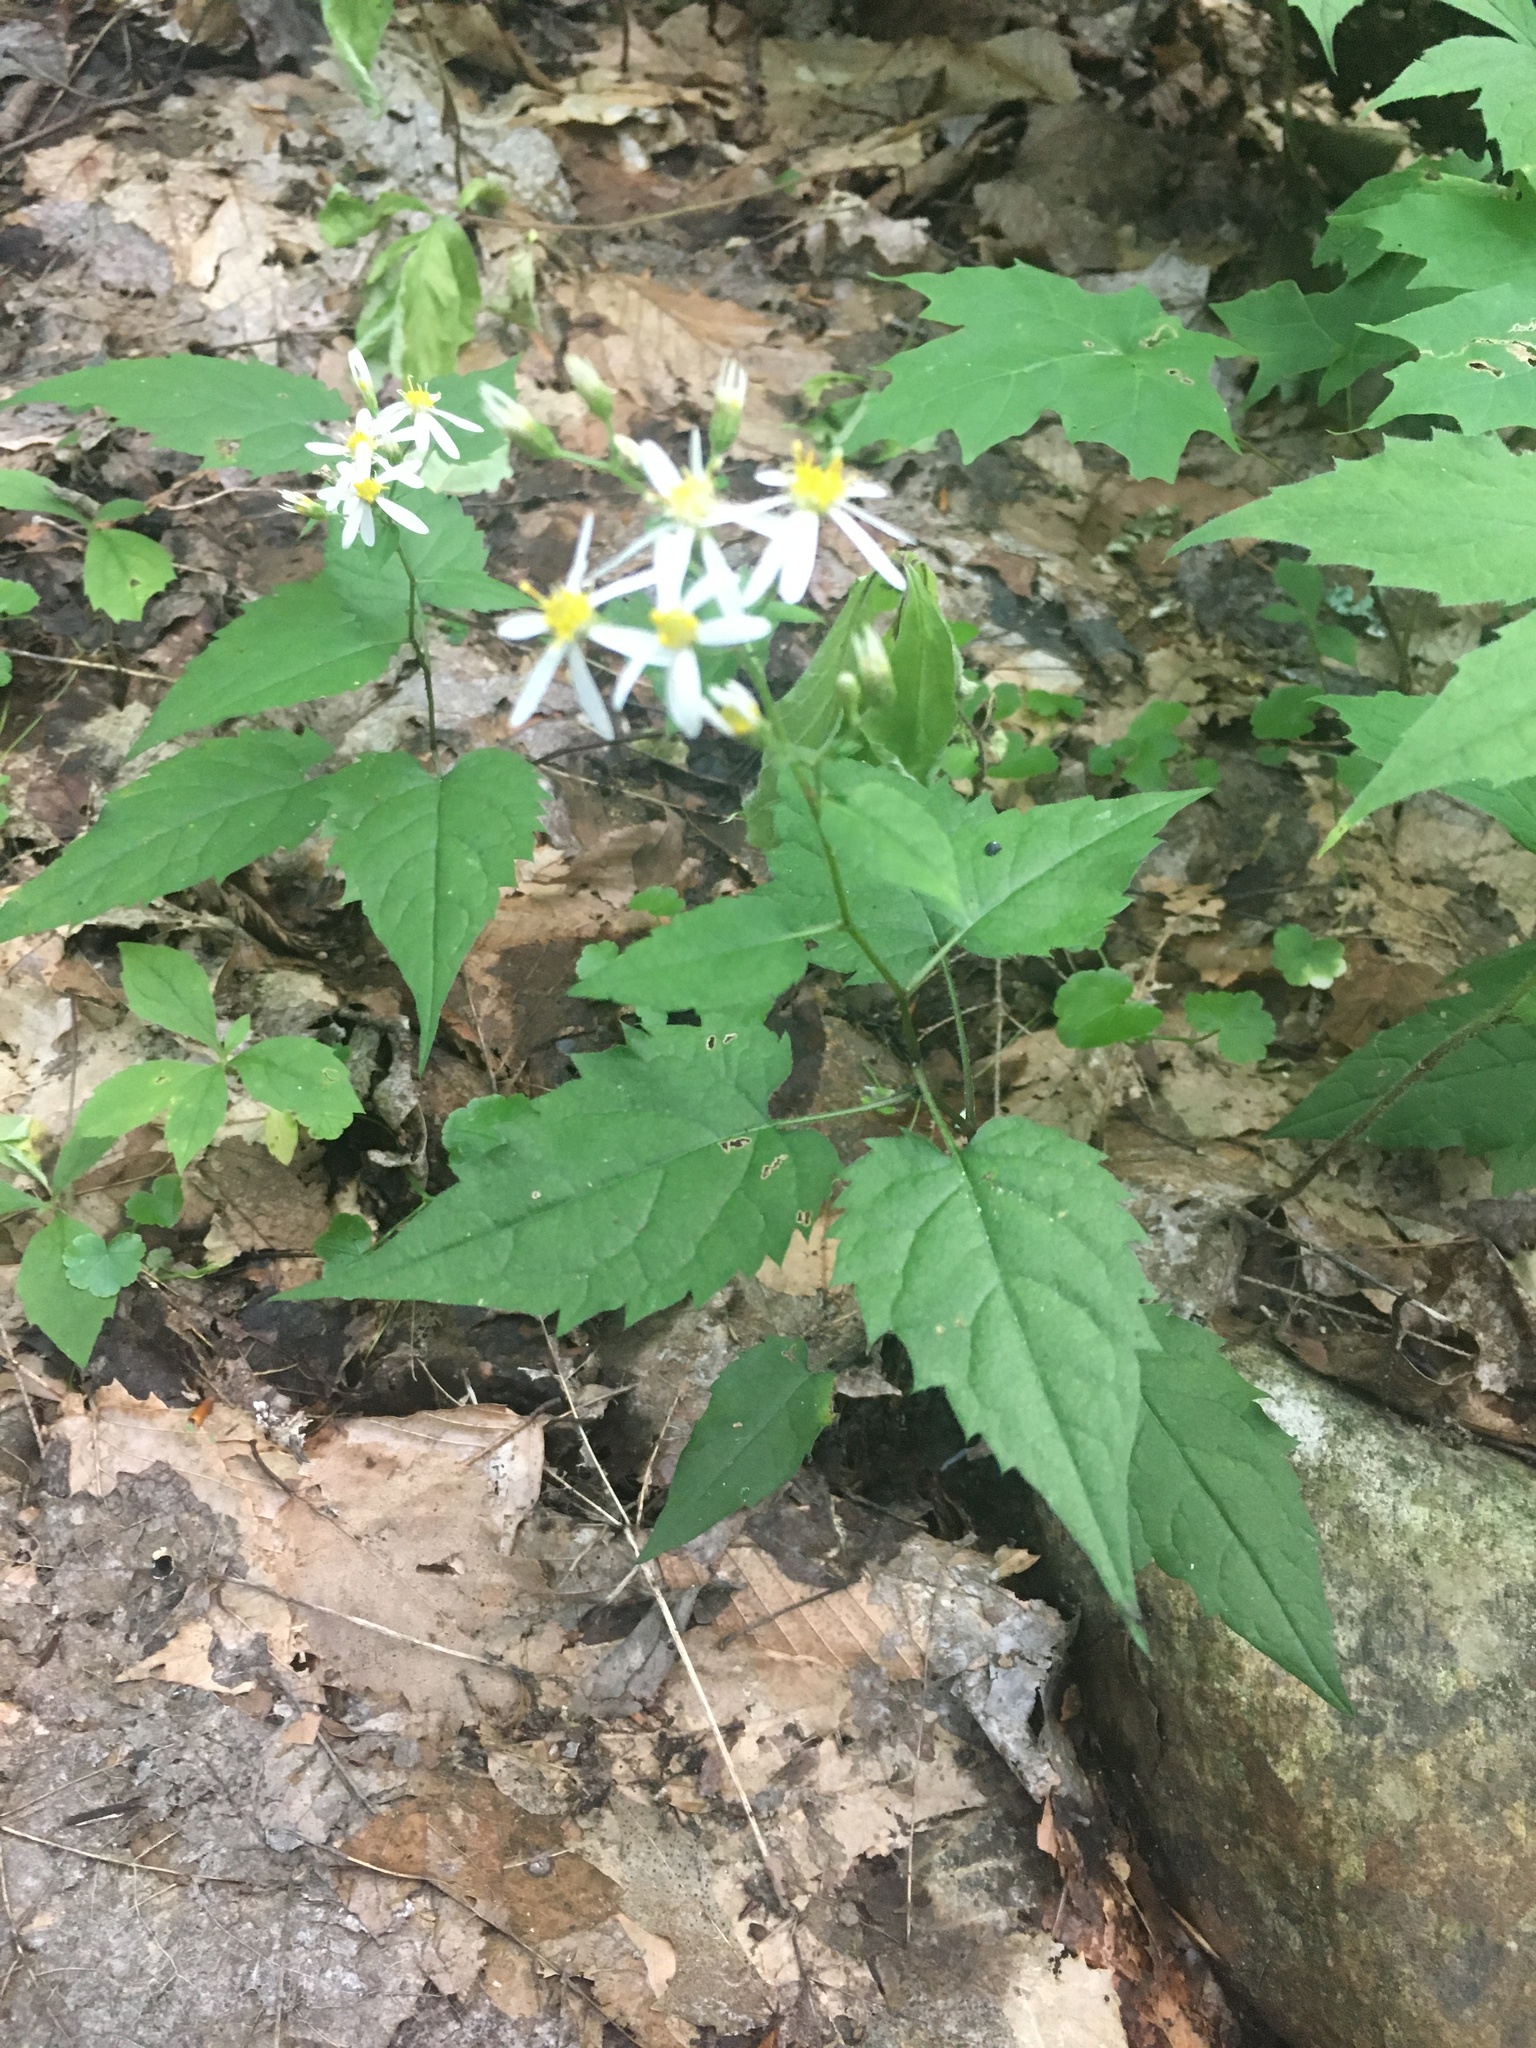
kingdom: Plantae
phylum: Tracheophyta
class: Magnoliopsida
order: Asterales
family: Asteraceae
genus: Eurybia
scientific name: Eurybia divaricata
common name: White wood aster
